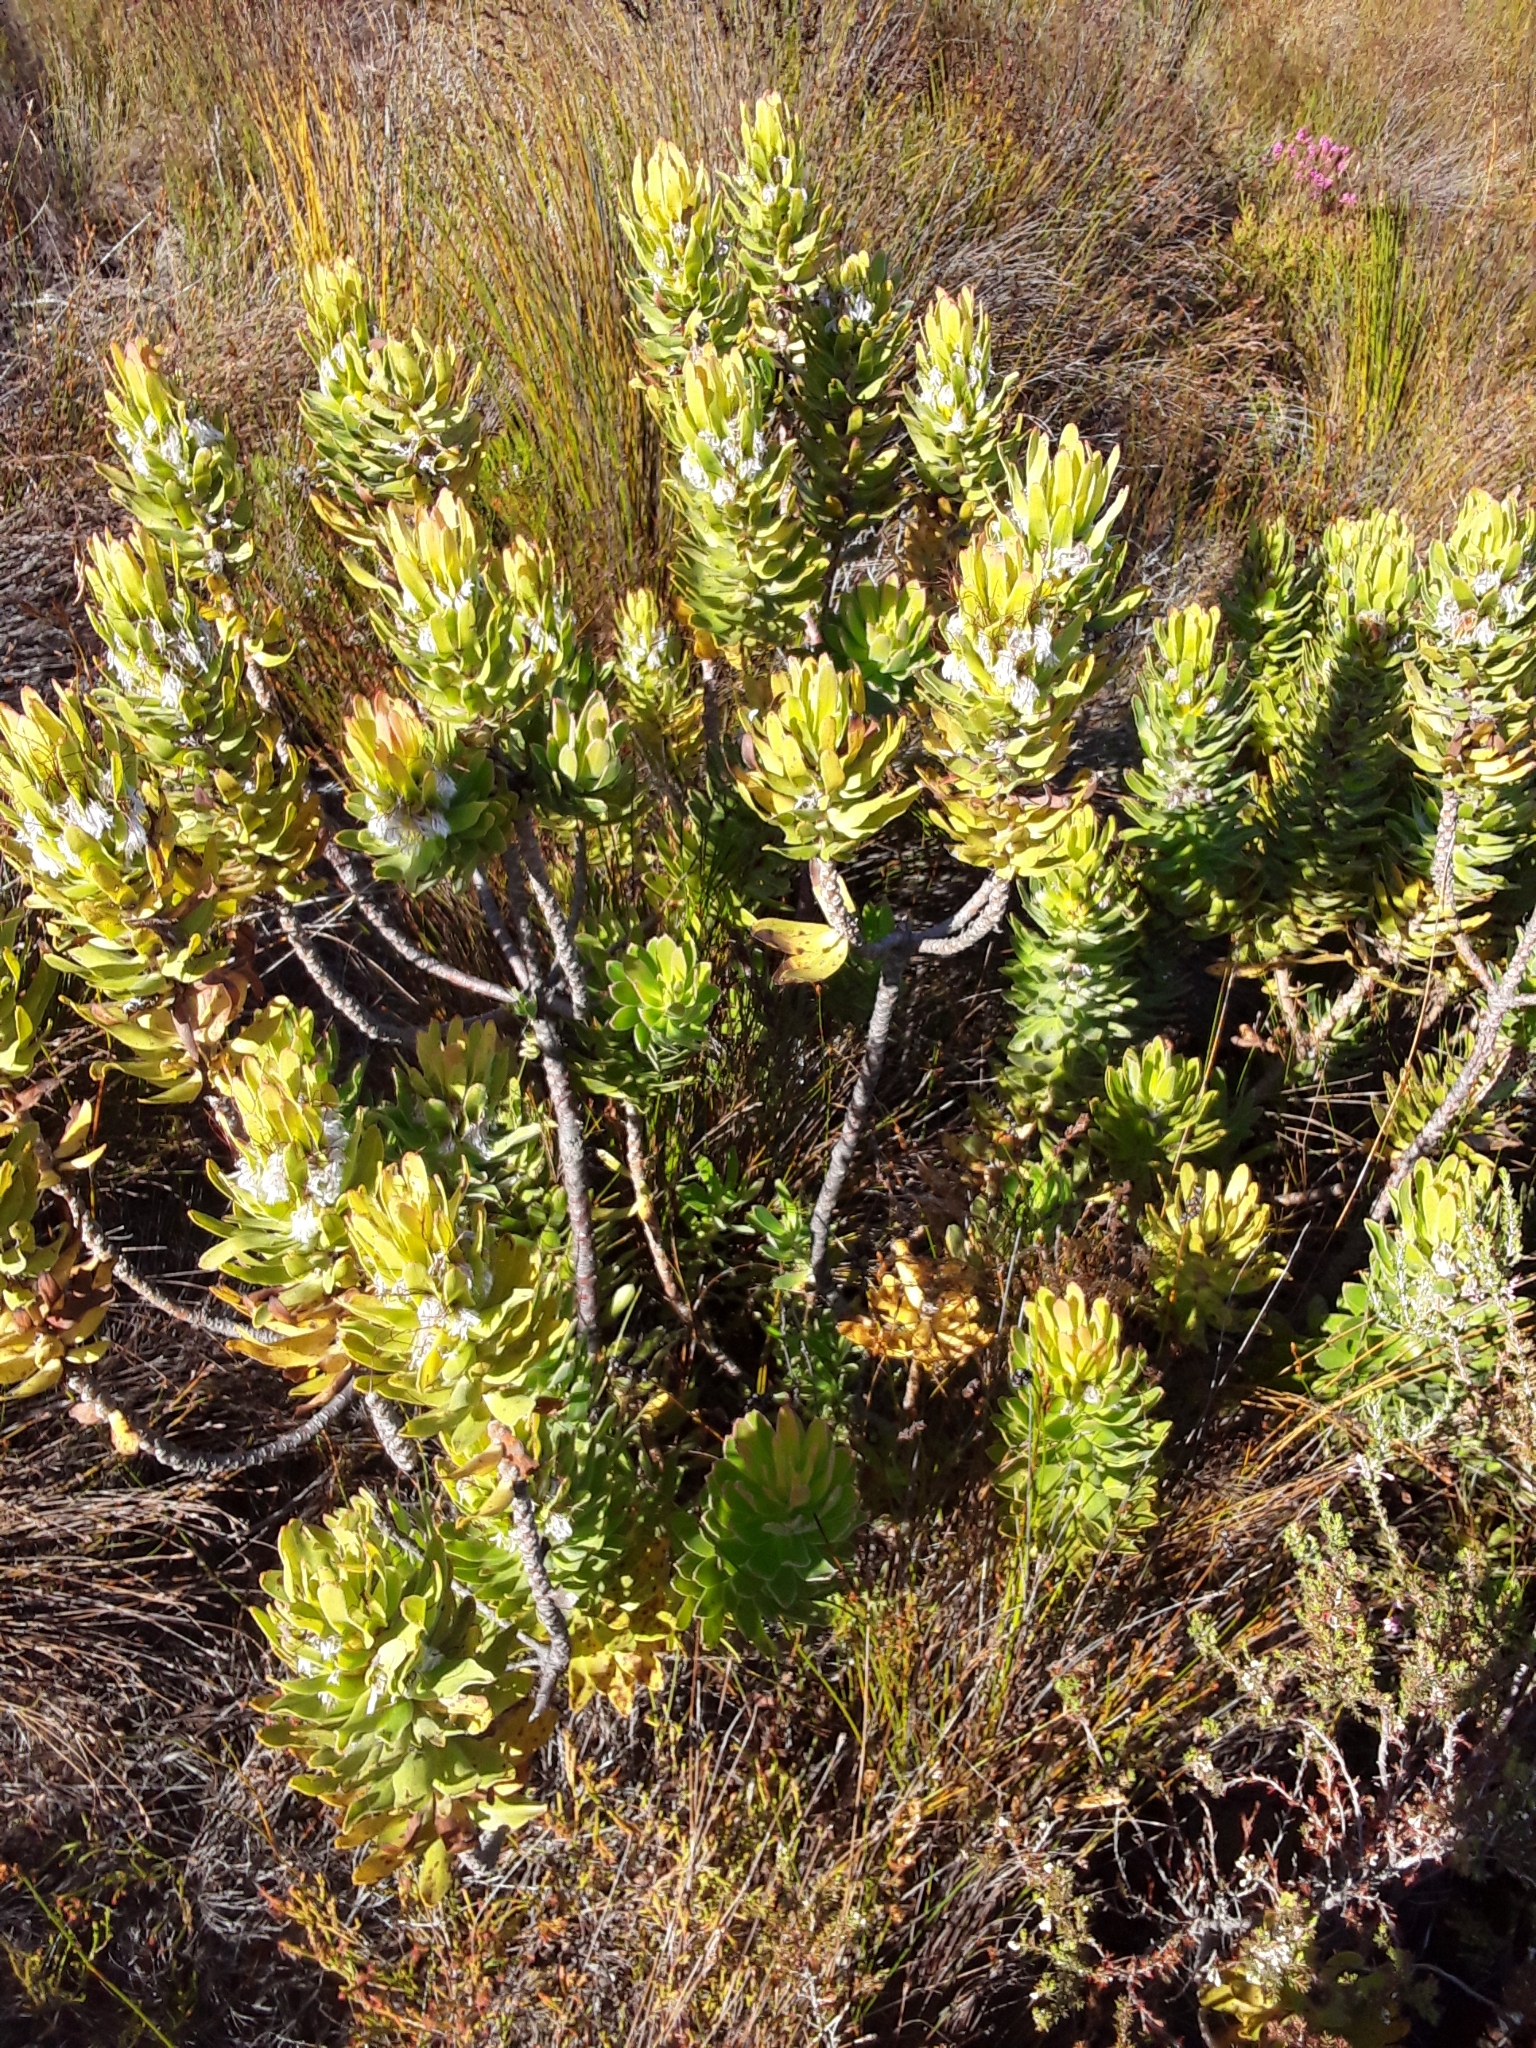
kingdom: Plantae
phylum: Tracheophyta
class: Magnoliopsida
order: Proteales
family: Proteaceae
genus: Mimetes
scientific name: Mimetes cucullatus
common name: Common pagoda
